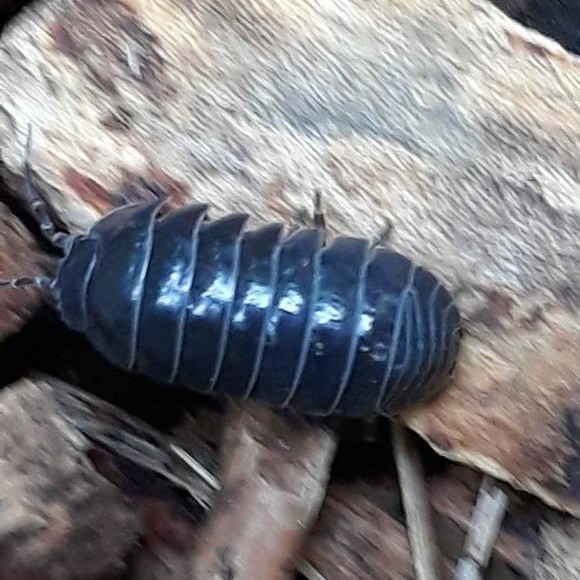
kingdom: Animalia
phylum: Arthropoda
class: Malacostraca
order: Isopoda
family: Armadillidiidae
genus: Armadillidium
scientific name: Armadillidium vulgare
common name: Common pill woodlouse
